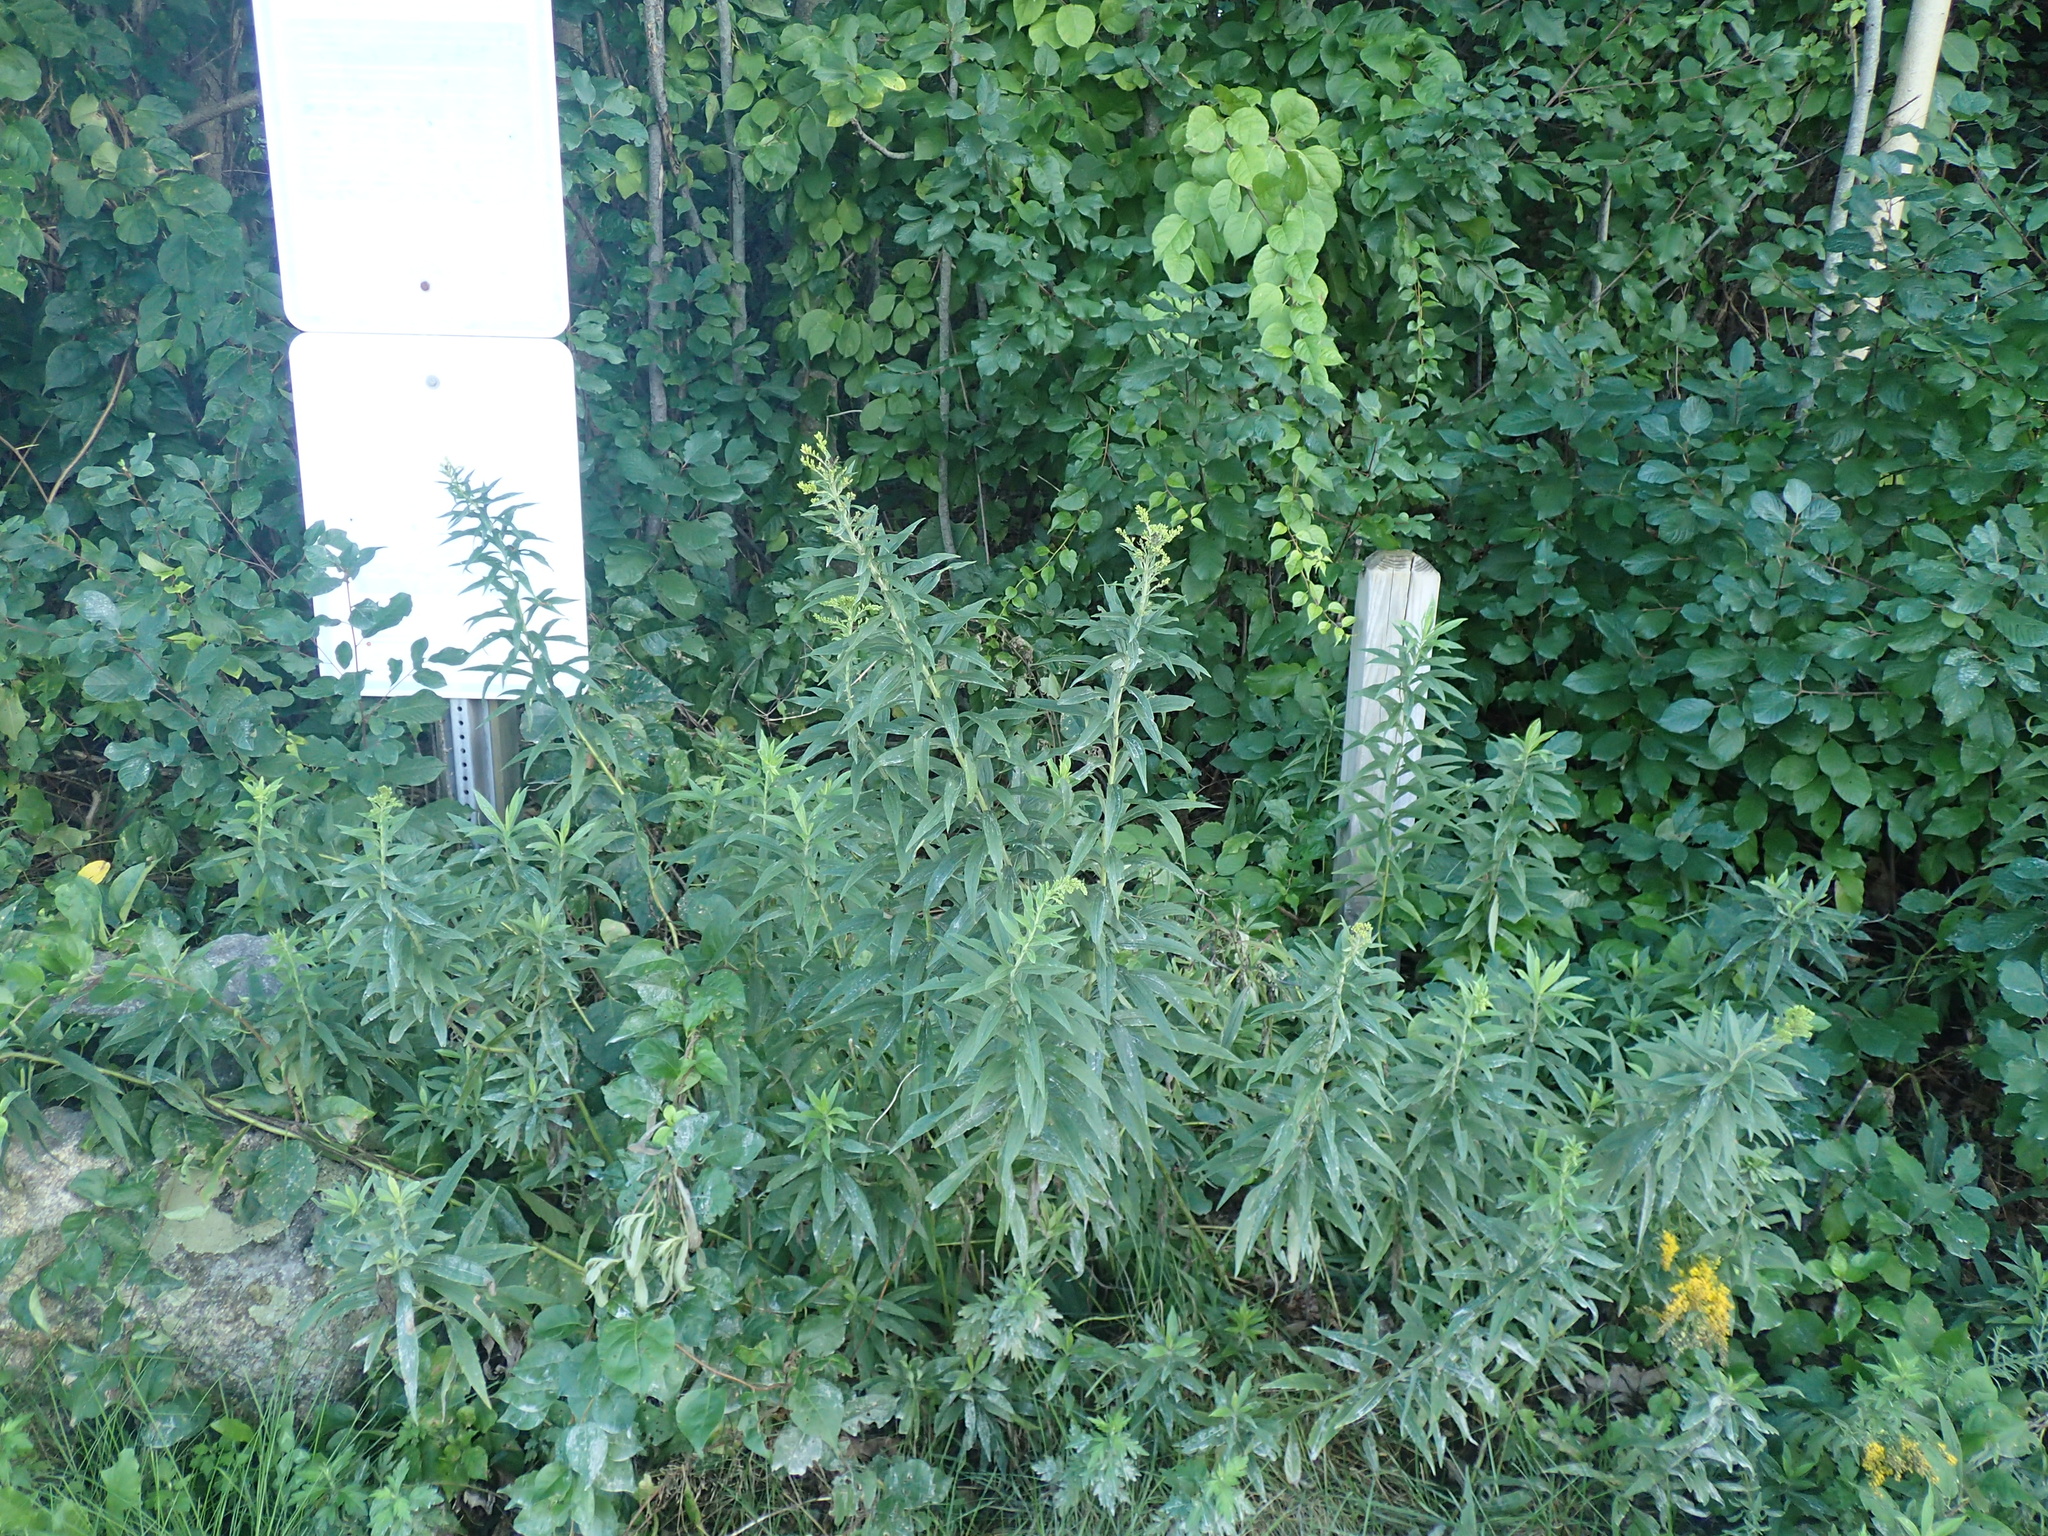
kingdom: Plantae
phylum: Tracheophyta
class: Magnoliopsida
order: Asterales
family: Asteraceae
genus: Solidago
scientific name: Solidago altissima
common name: Late goldenrod
